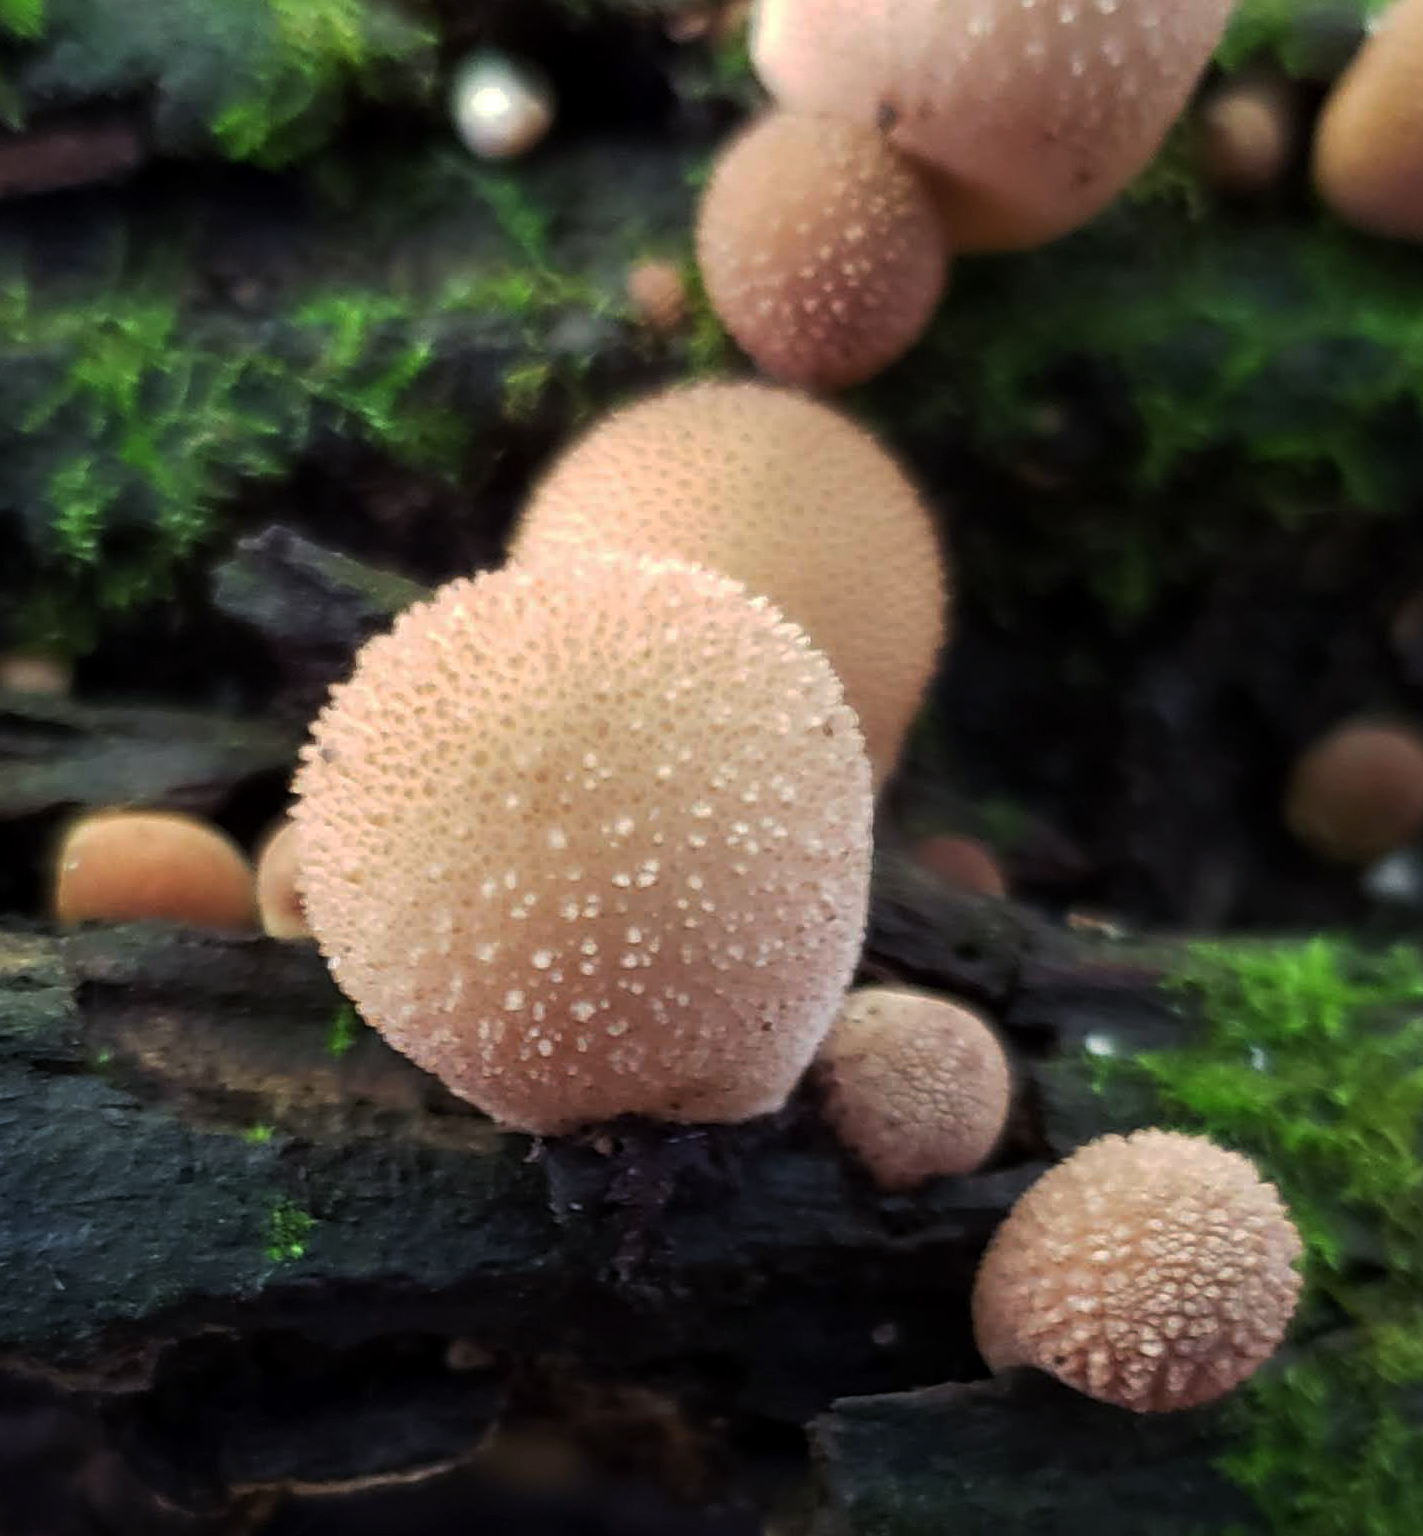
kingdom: Fungi
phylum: Basidiomycota
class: Agaricomycetes
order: Agaricales
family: Lycoperdaceae
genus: Apioperdon
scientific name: Apioperdon pyriforme
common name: Pear-shaped puffball
